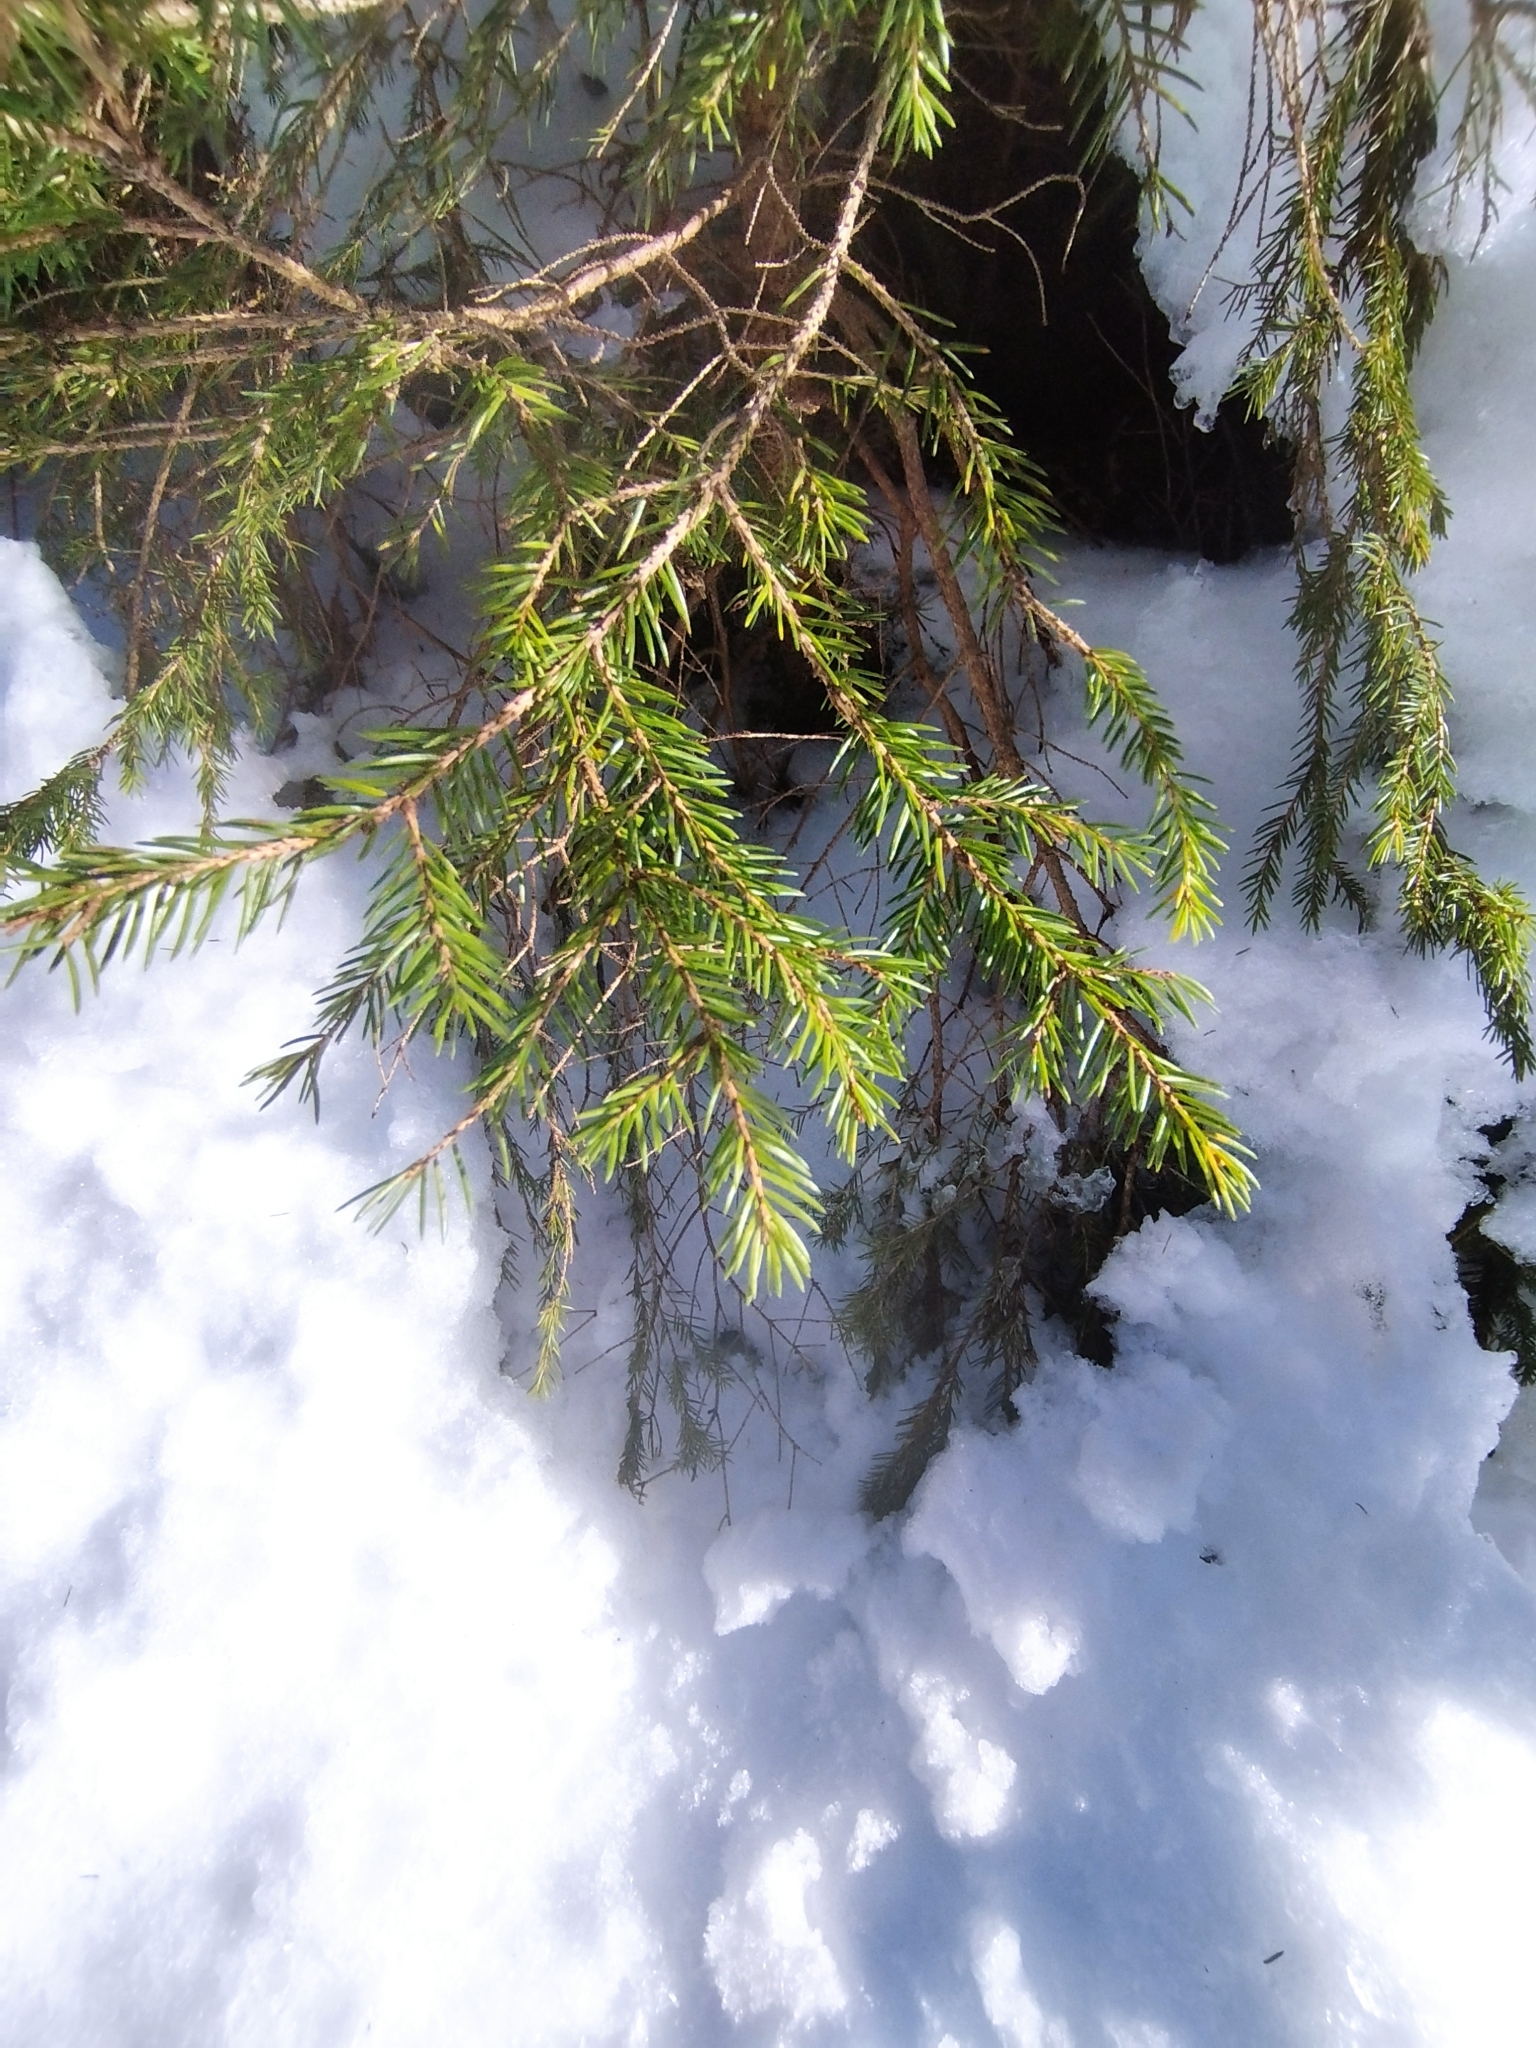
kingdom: Plantae
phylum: Tracheophyta
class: Pinopsida
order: Pinales
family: Pinaceae
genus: Picea
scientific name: Picea abies
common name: Norway spruce
